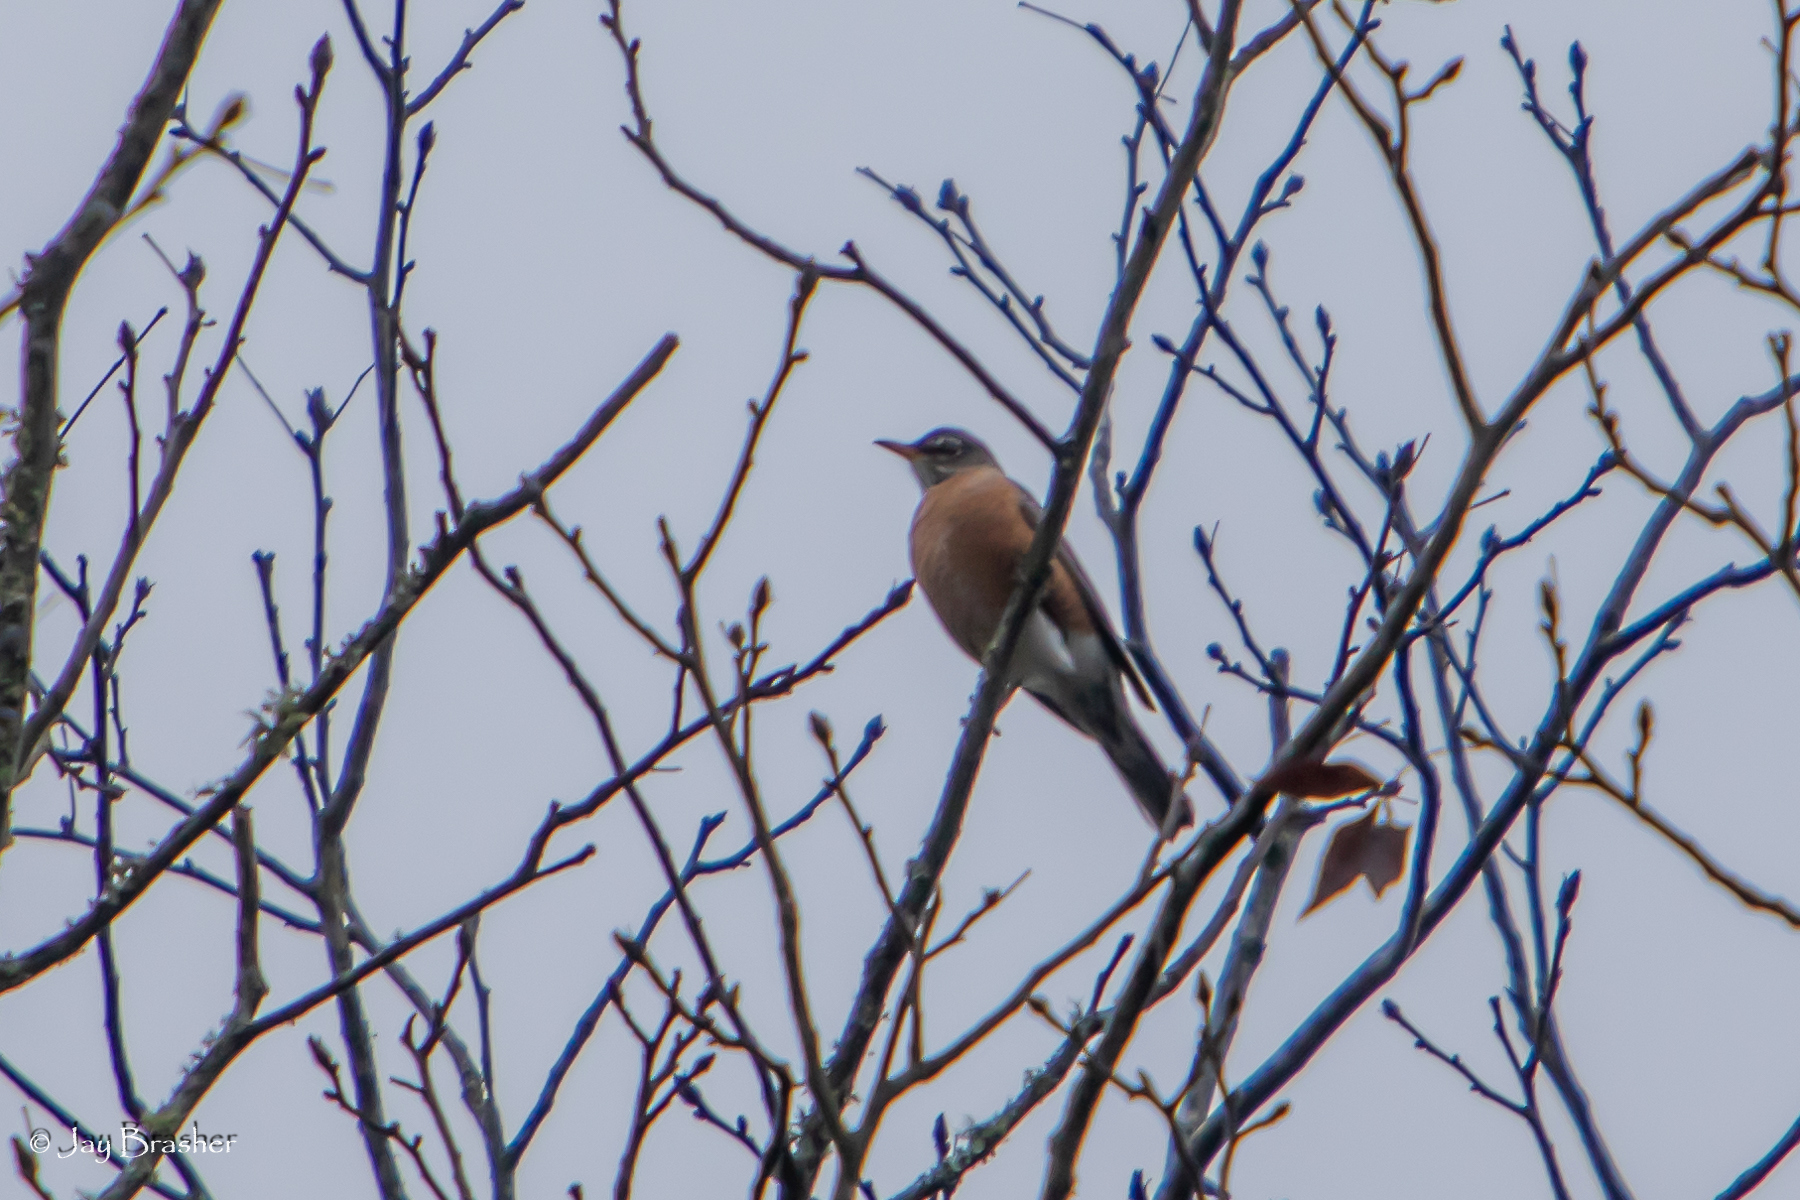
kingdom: Animalia
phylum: Chordata
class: Aves
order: Passeriformes
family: Turdidae
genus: Turdus
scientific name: Turdus migratorius
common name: American robin
